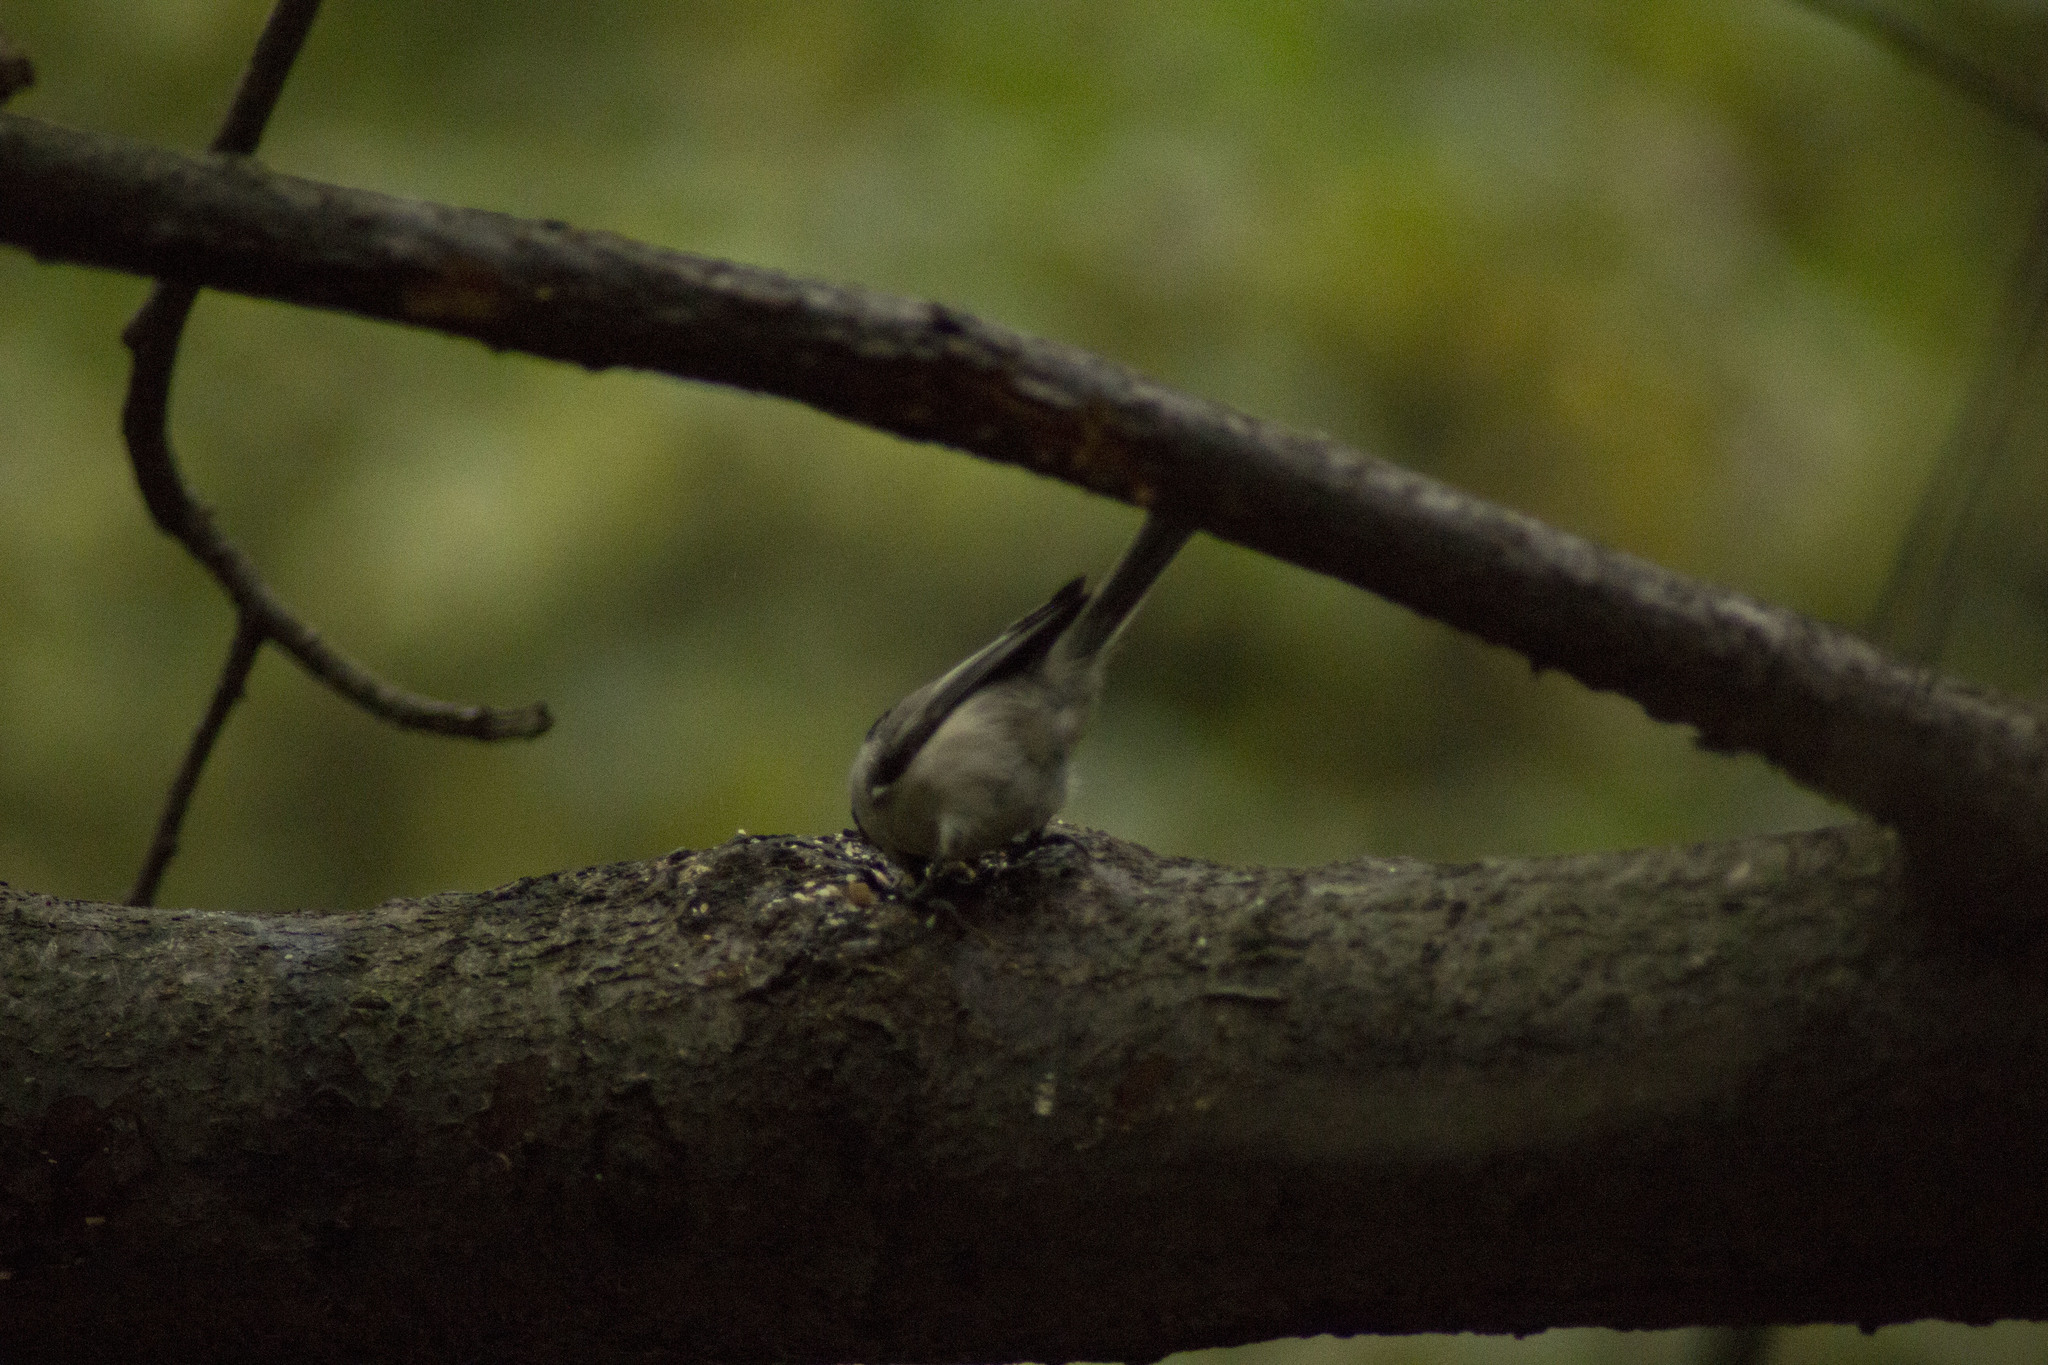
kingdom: Animalia
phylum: Chordata
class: Aves
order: Passeriformes
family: Paridae
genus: Poecile
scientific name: Poecile montanus
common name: Willow tit
